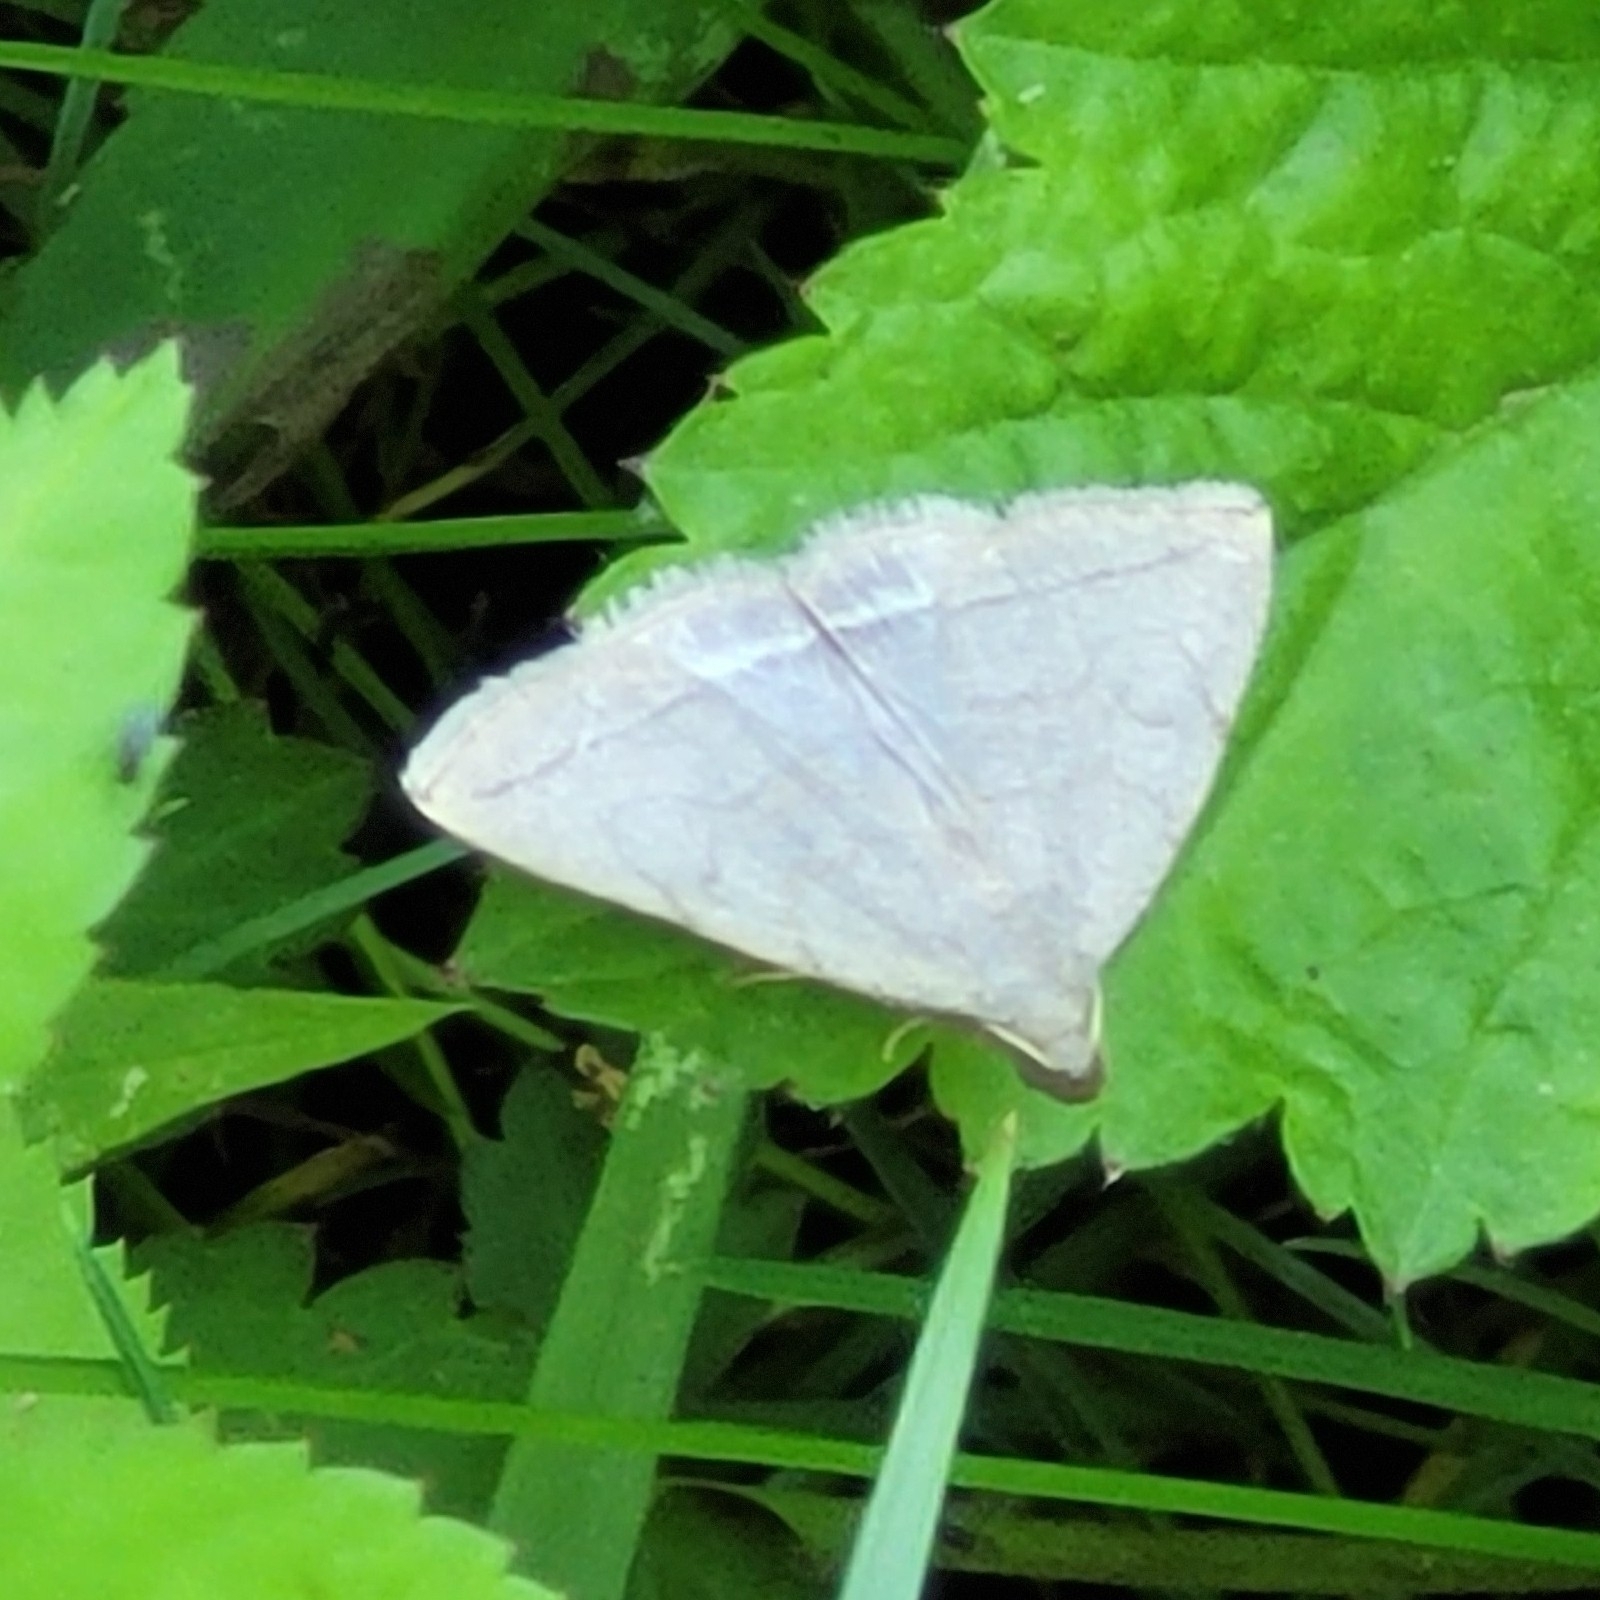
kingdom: Animalia
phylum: Arthropoda
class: Insecta
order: Lepidoptera
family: Erebidae
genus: Zanclognatha
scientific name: Zanclognatha pedipilalis
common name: Grayish fan-foot
